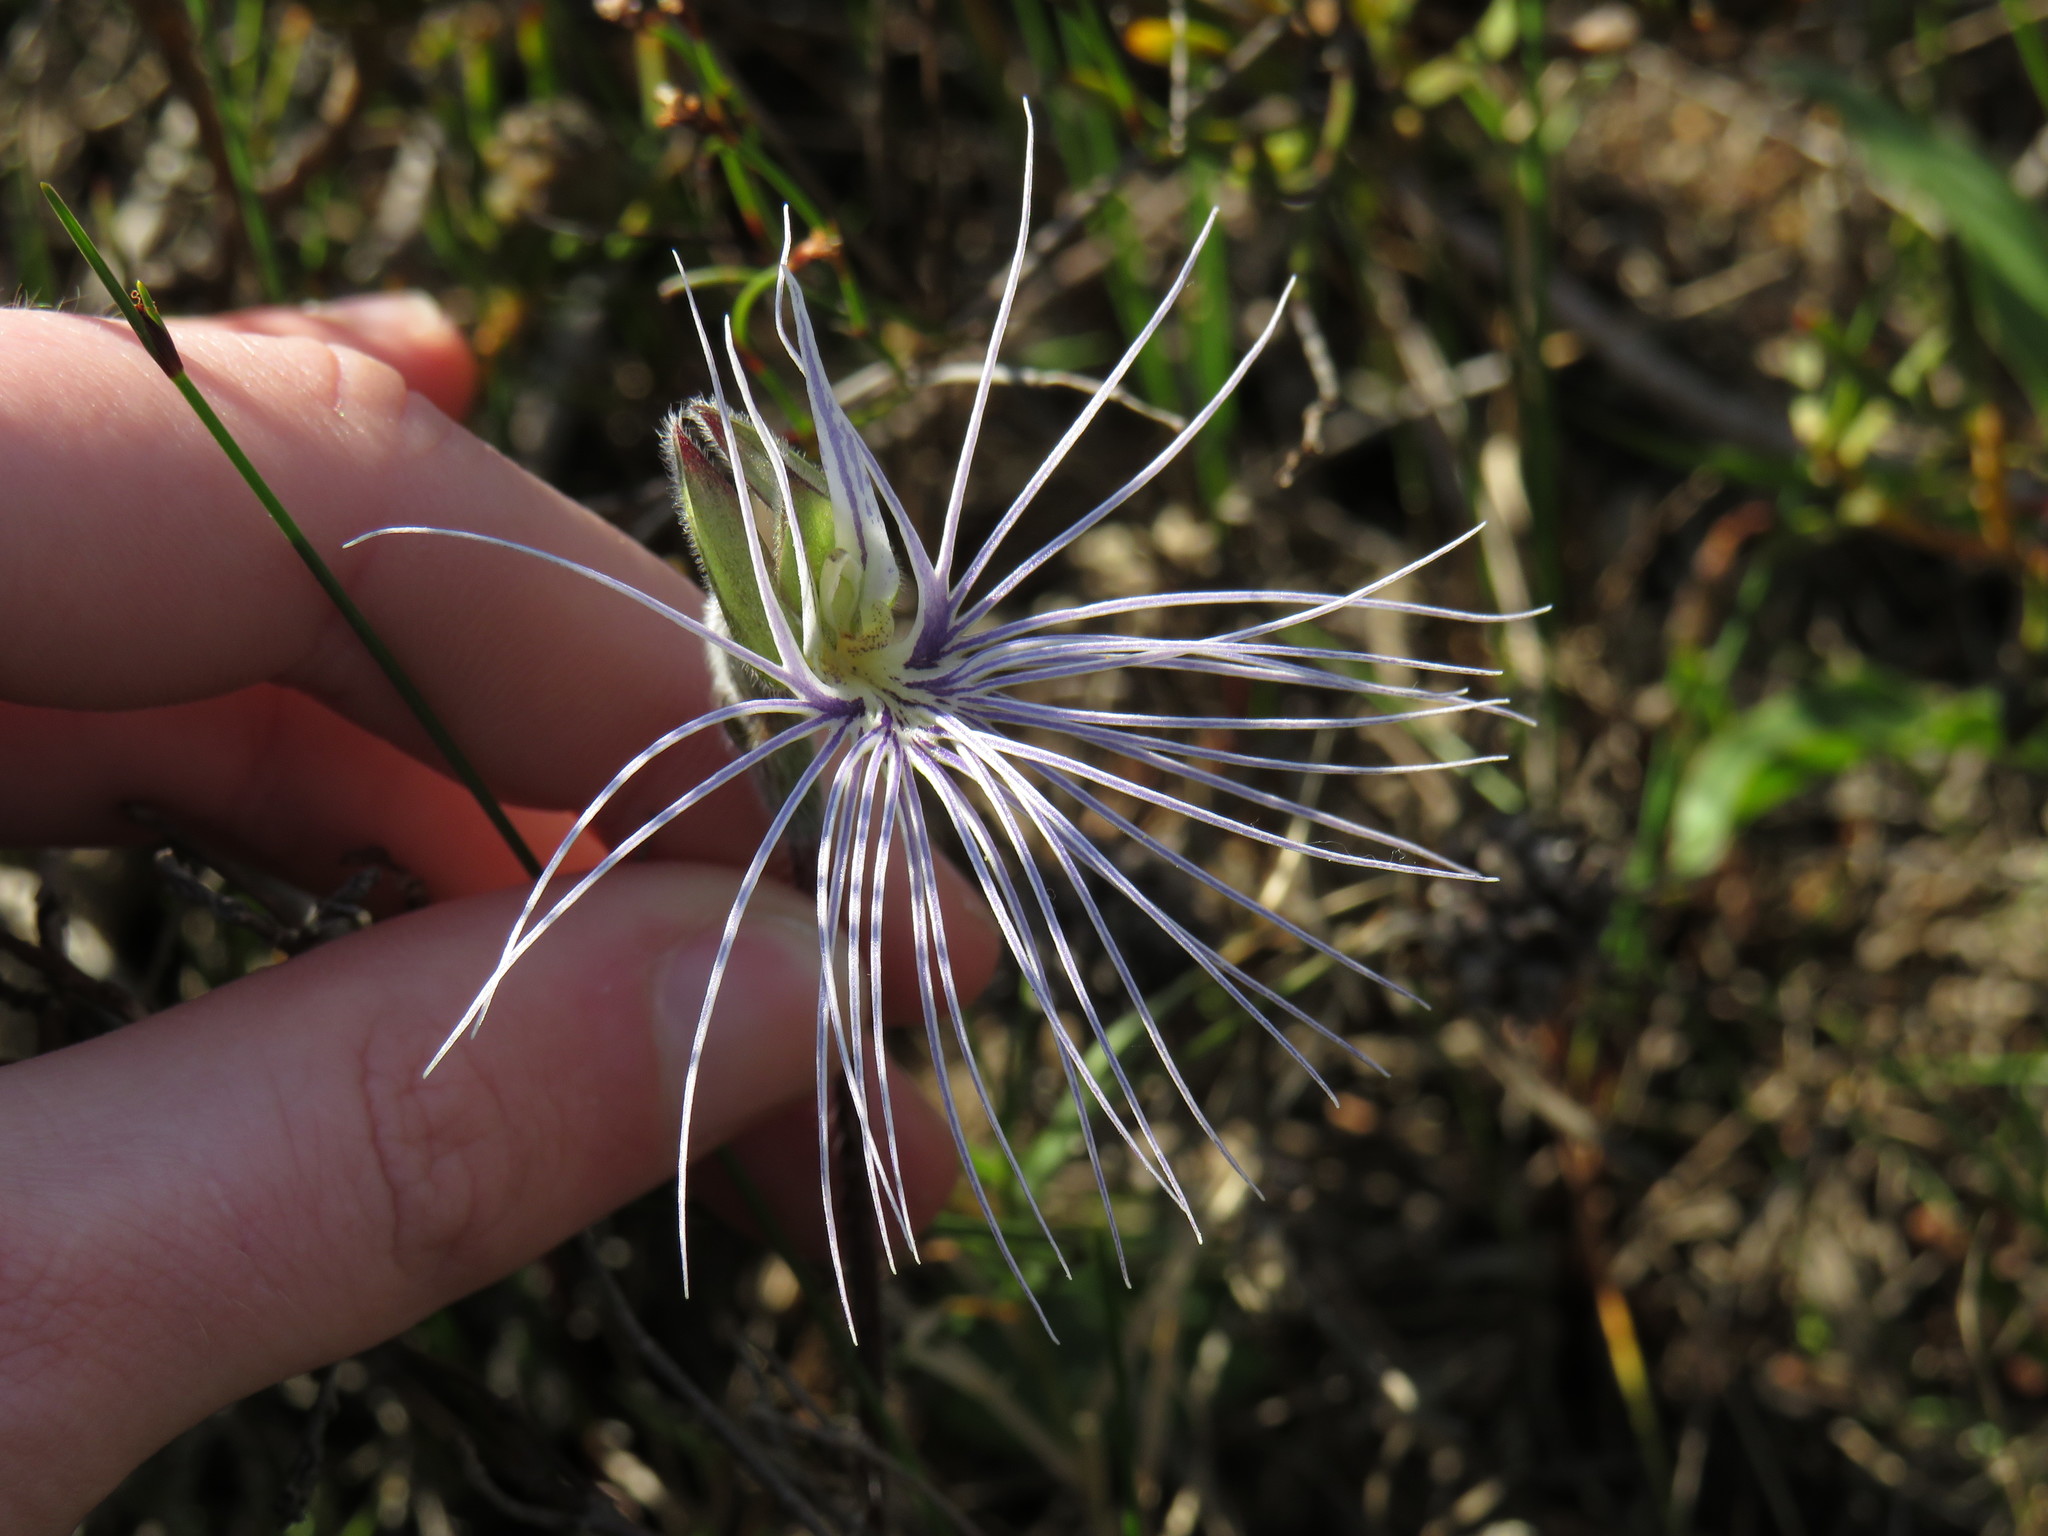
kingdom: Plantae
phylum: Tracheophyta
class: Liliopsida
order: Asparagales
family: Orchidaceae
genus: Holothrix
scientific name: Holothrix burmanniana
